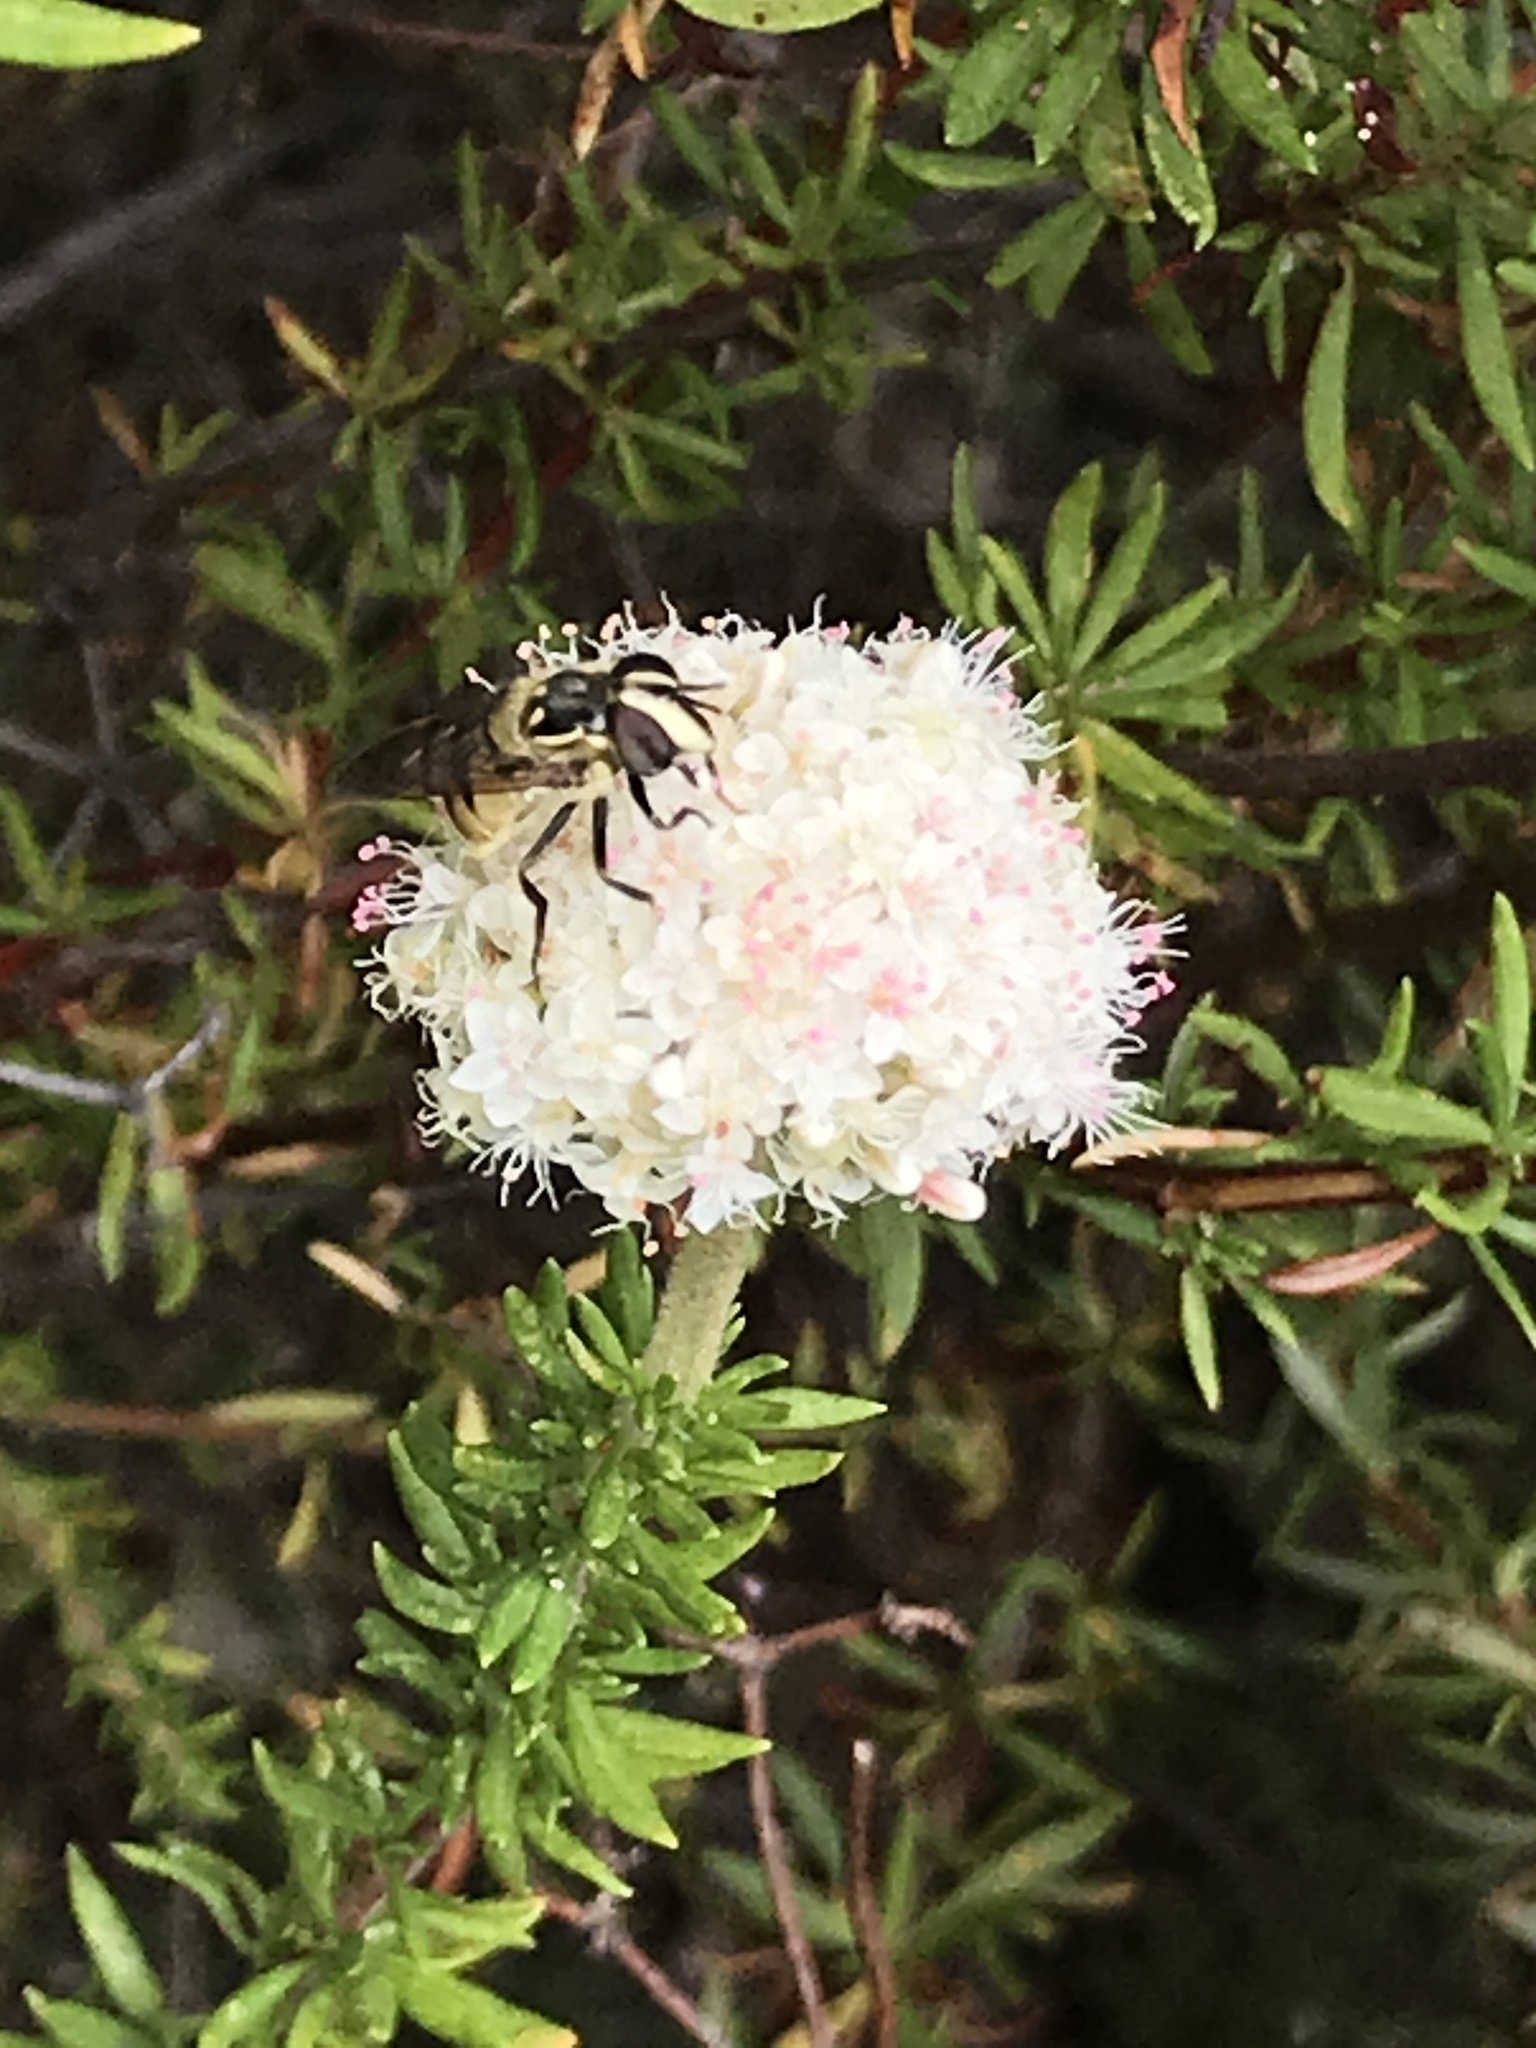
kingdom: Animalia
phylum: Arthropoda
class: Insecta
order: Diptera
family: Syrphidae
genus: Copestylum
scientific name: Copestylum fraudulentum
